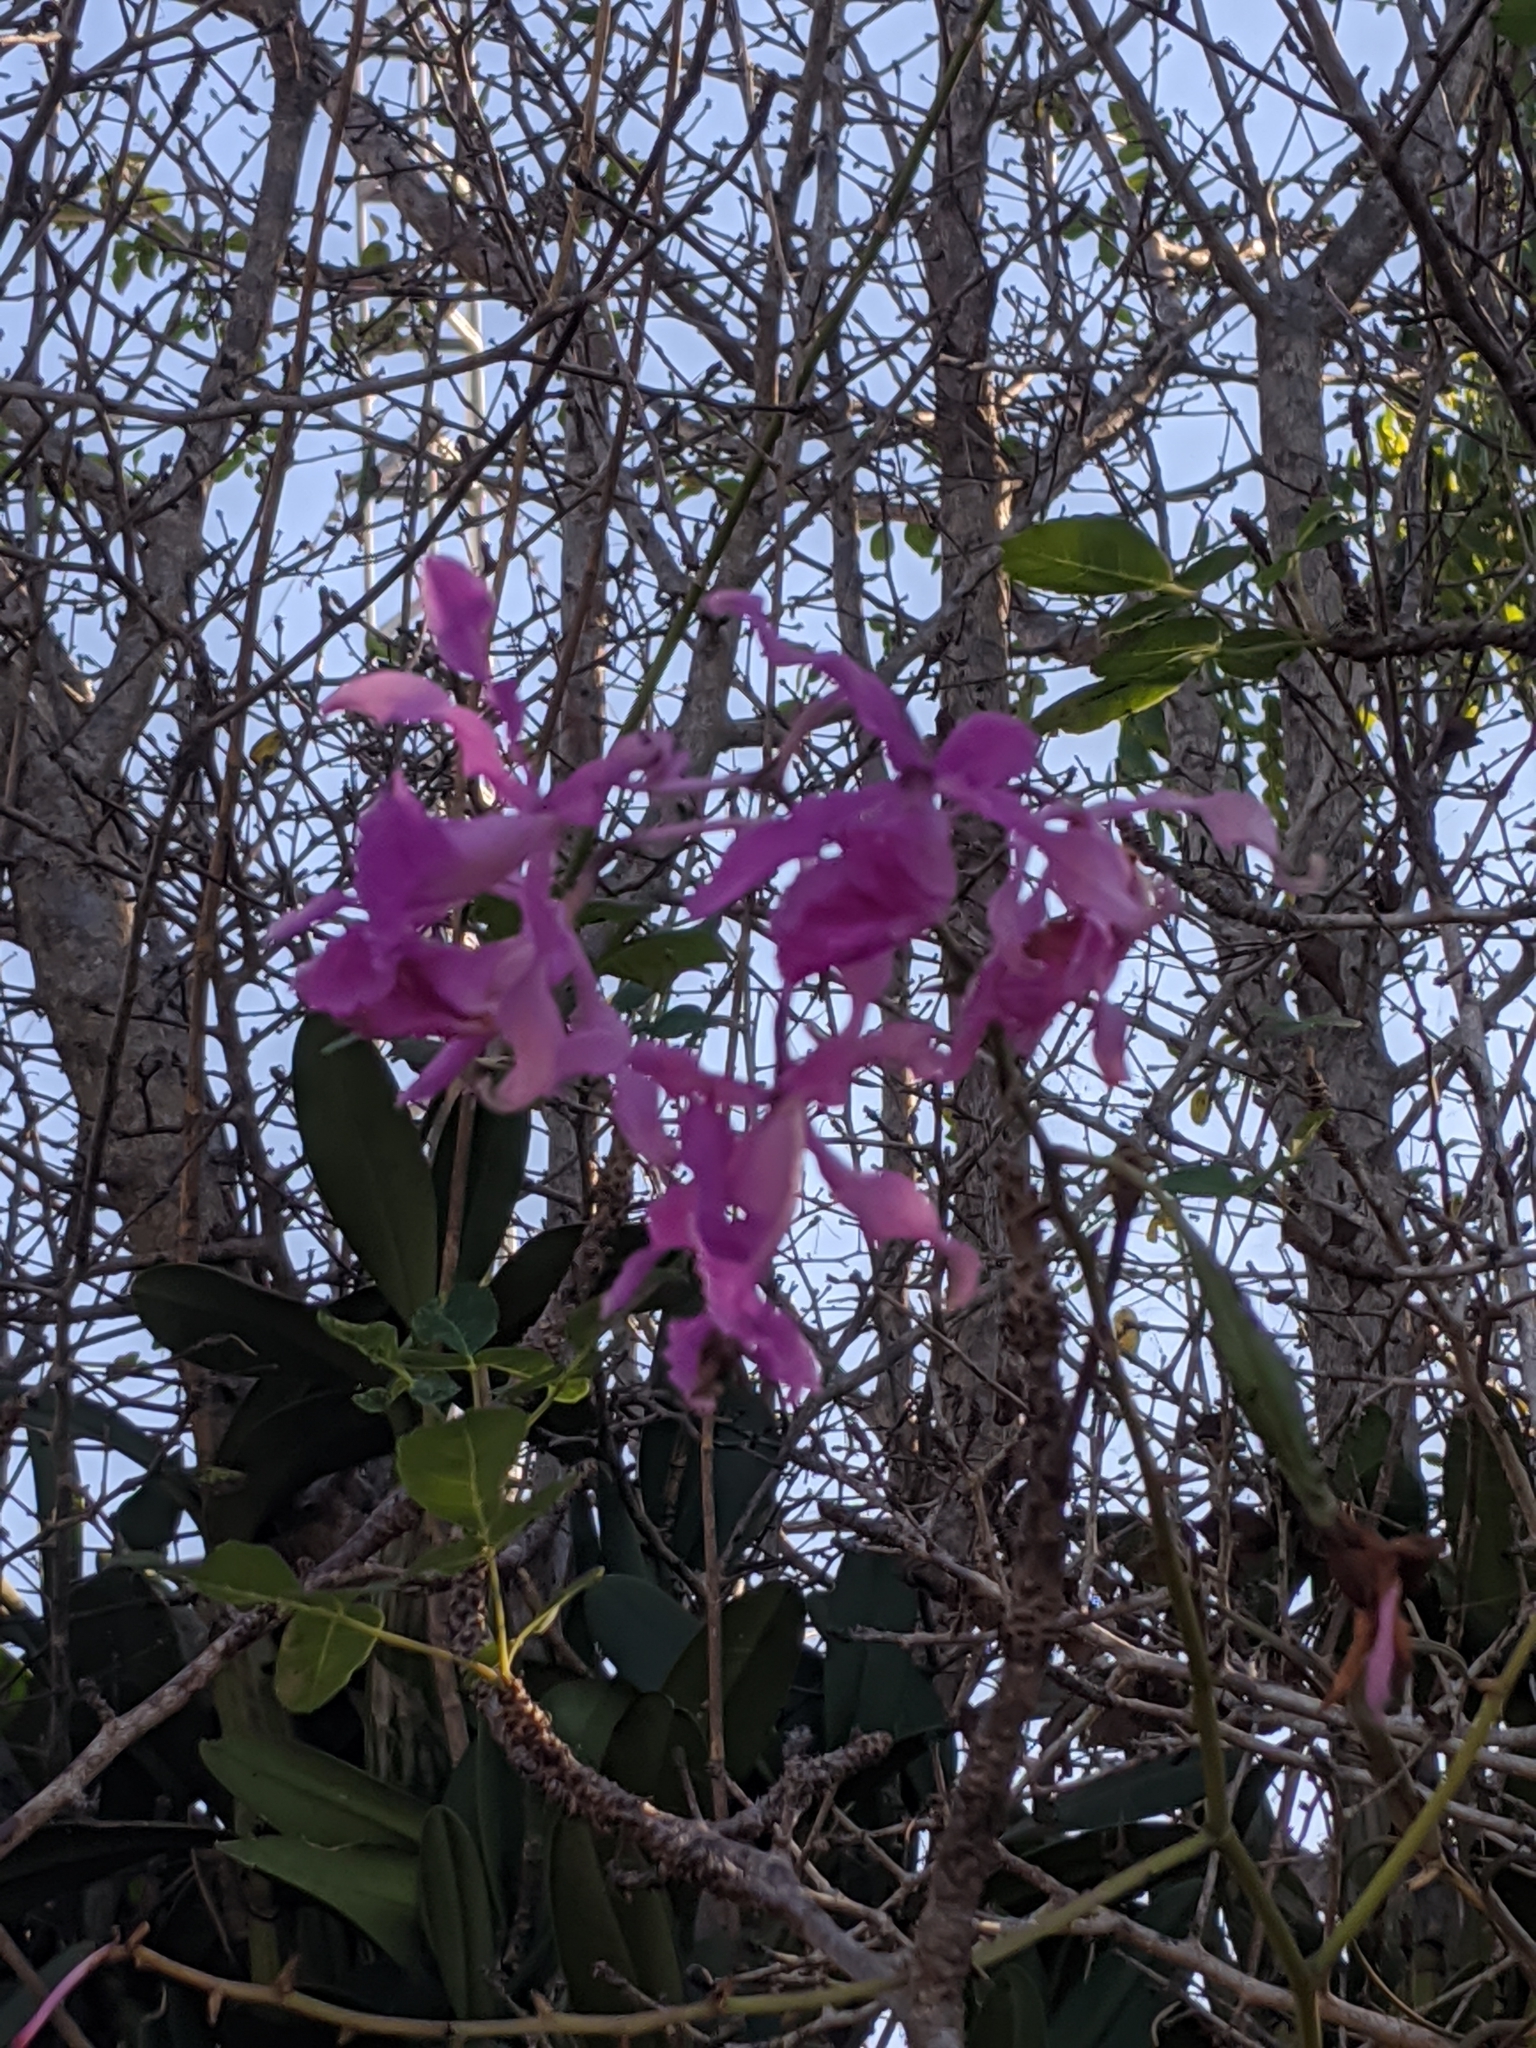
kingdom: Plantae
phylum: Tracheophyta
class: Liliopsida
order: Asparagales
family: Orchidaceae
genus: Myrmecophila
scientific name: Myrmecophila galeottiana
